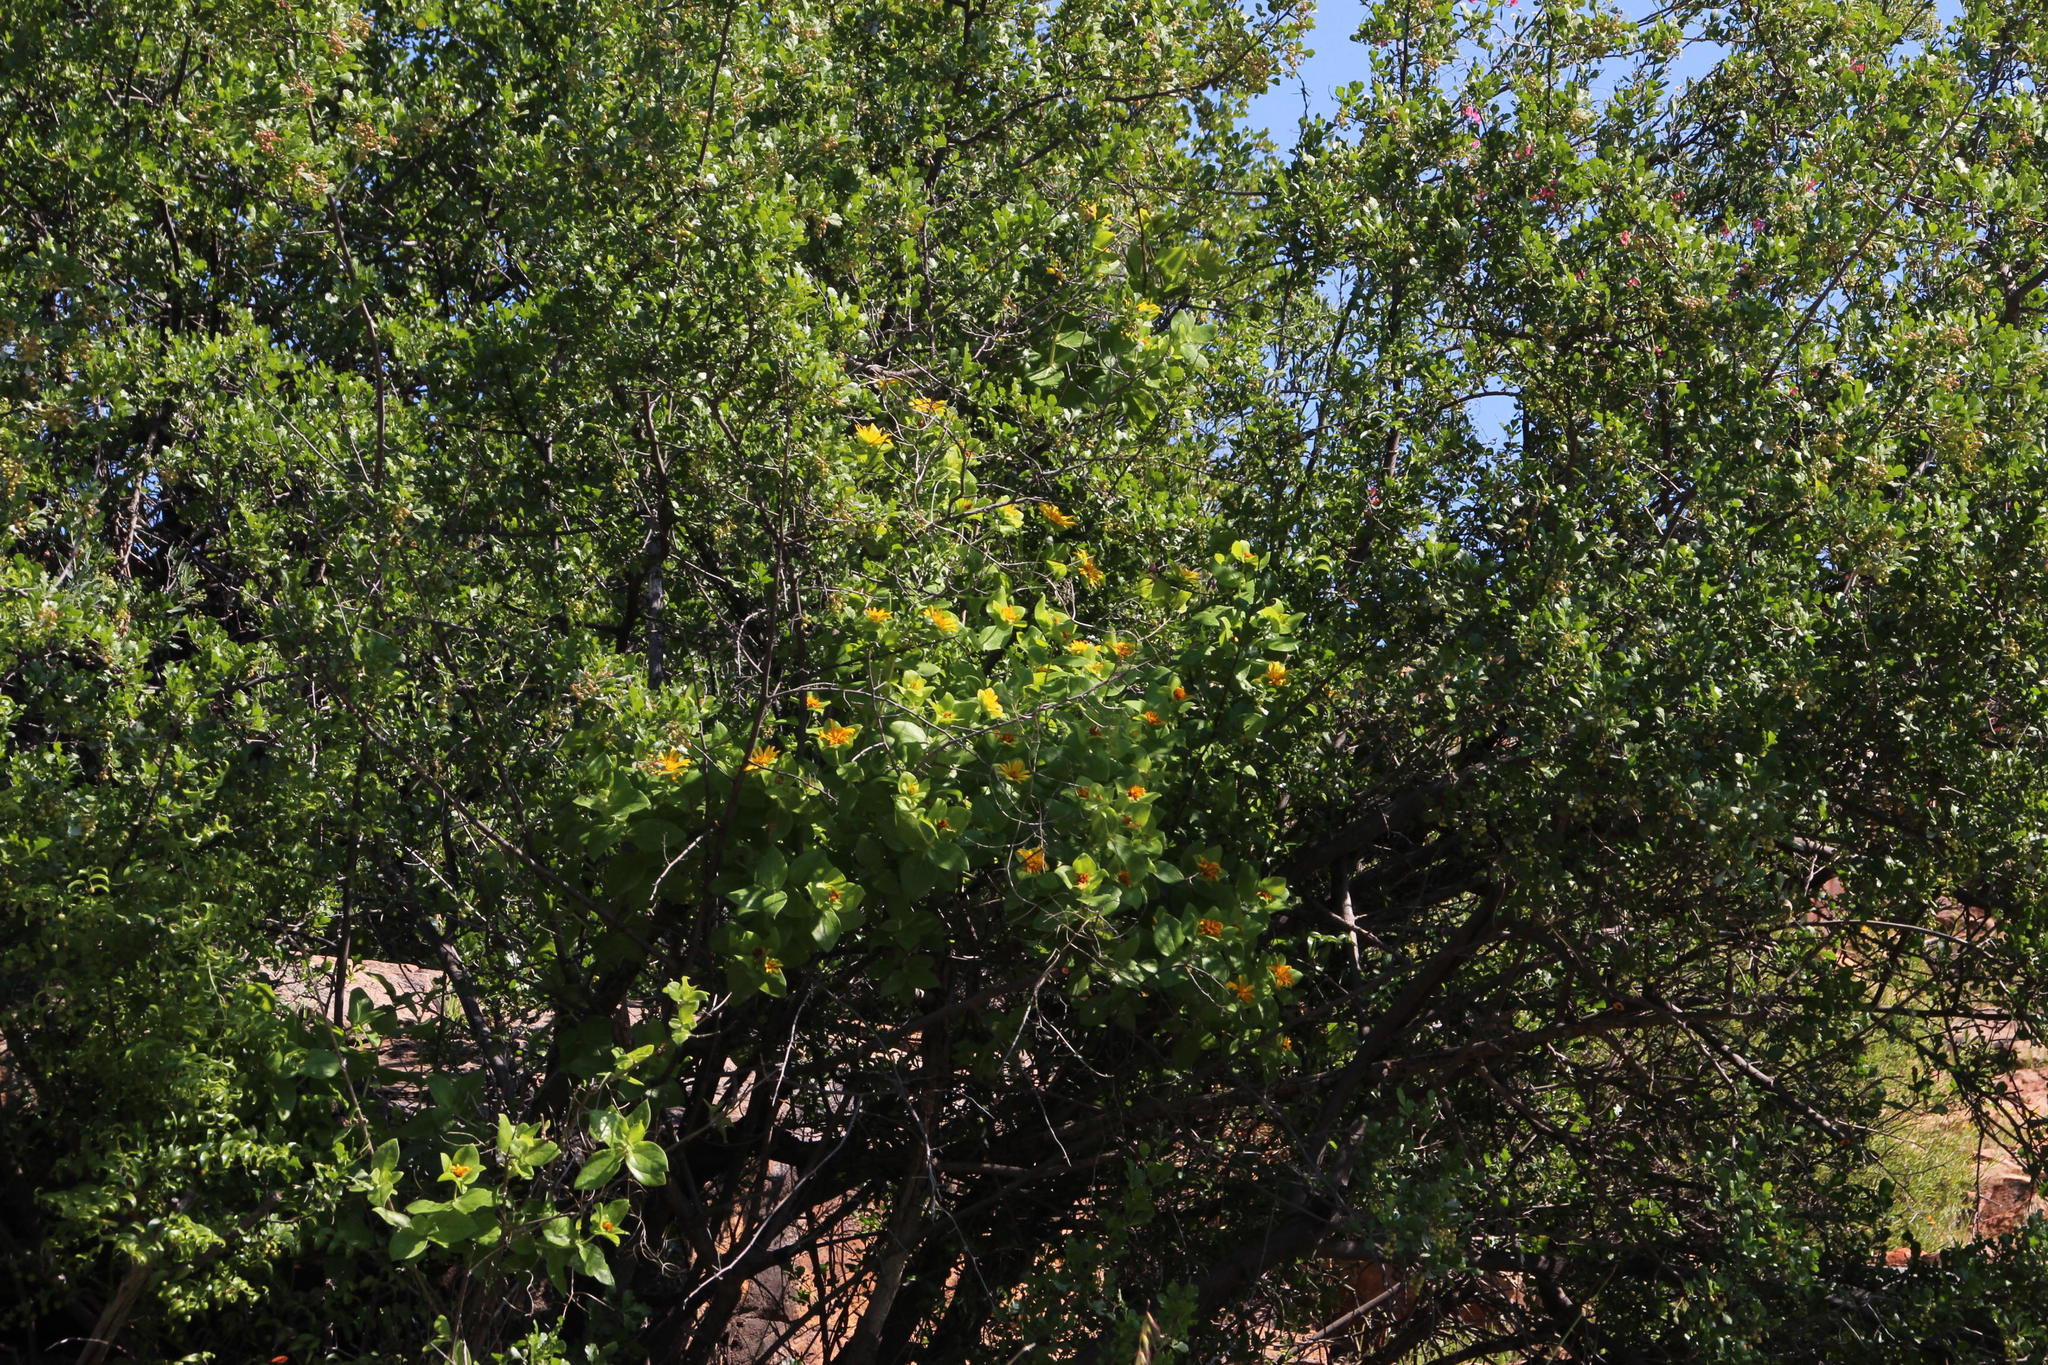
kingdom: Plantae
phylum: Tracheophyta
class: Magnoliopsida
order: Asterales
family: Asteraceae
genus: Didelta
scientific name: Didelta spinosa
